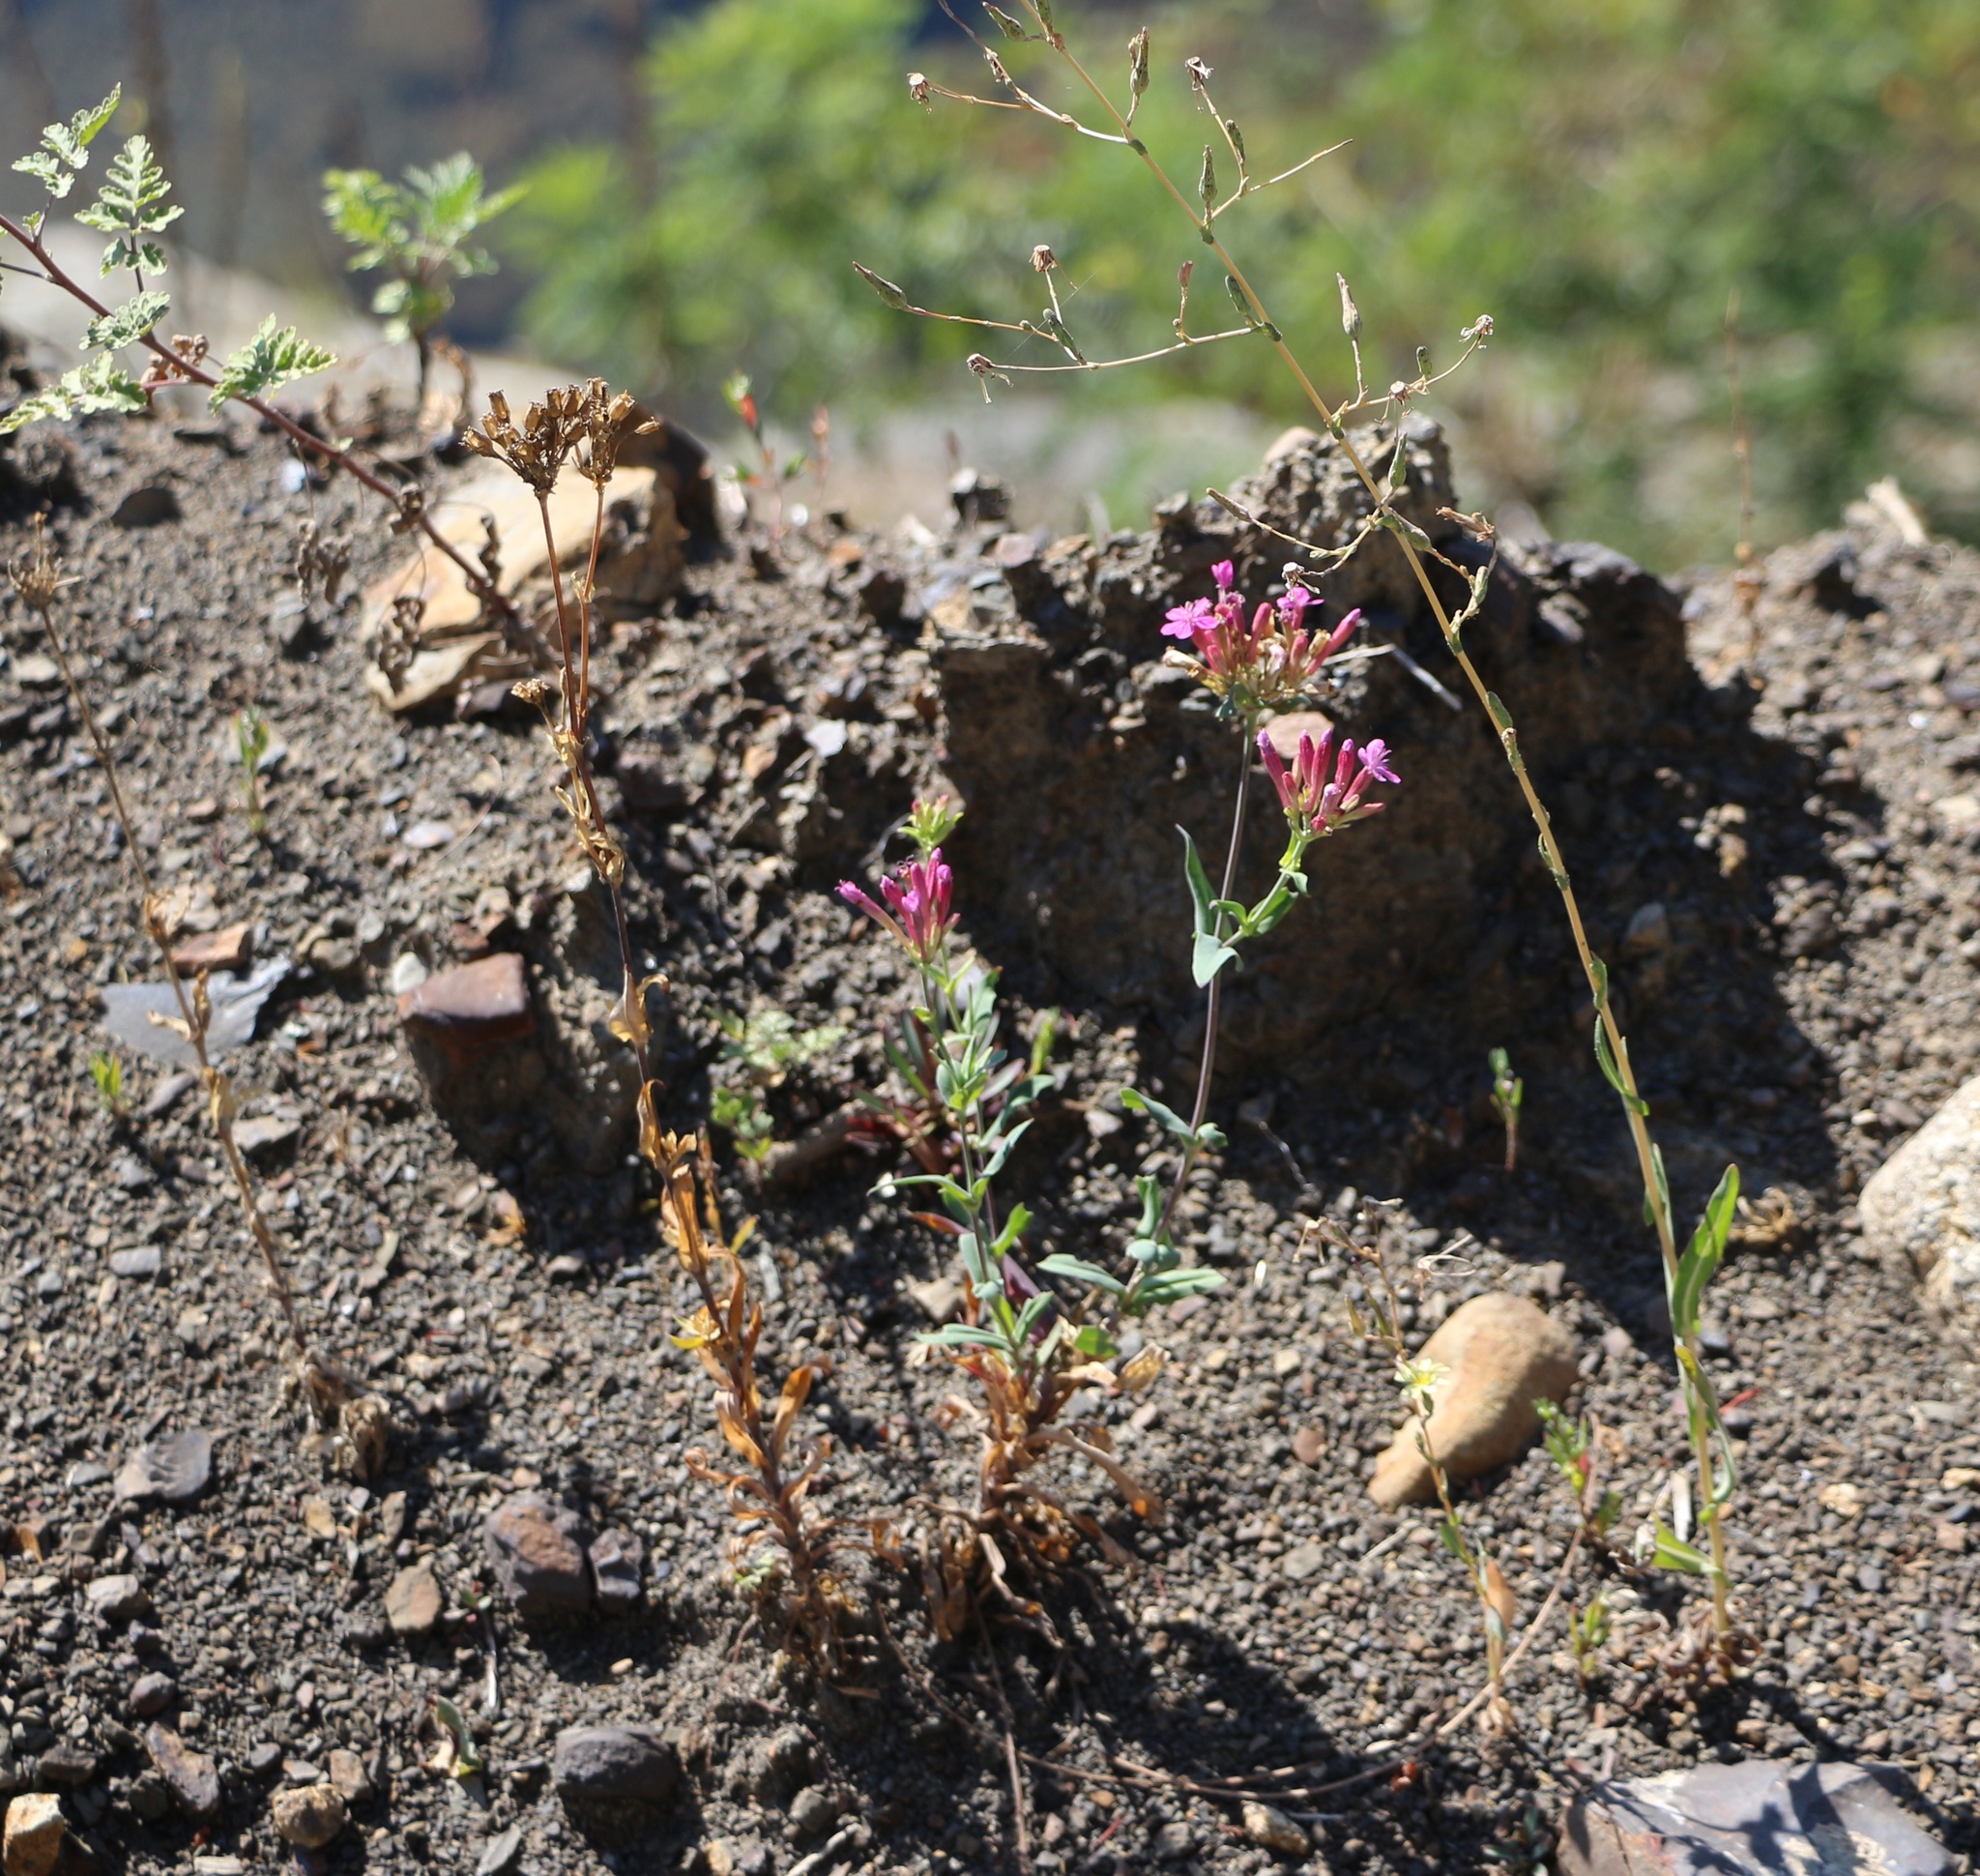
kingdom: Plantae
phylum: Tracheophyta
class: Magnoliopsida
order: Caryophyllales
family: Caryophyllaceae
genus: Atocion
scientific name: Atocion compactum
